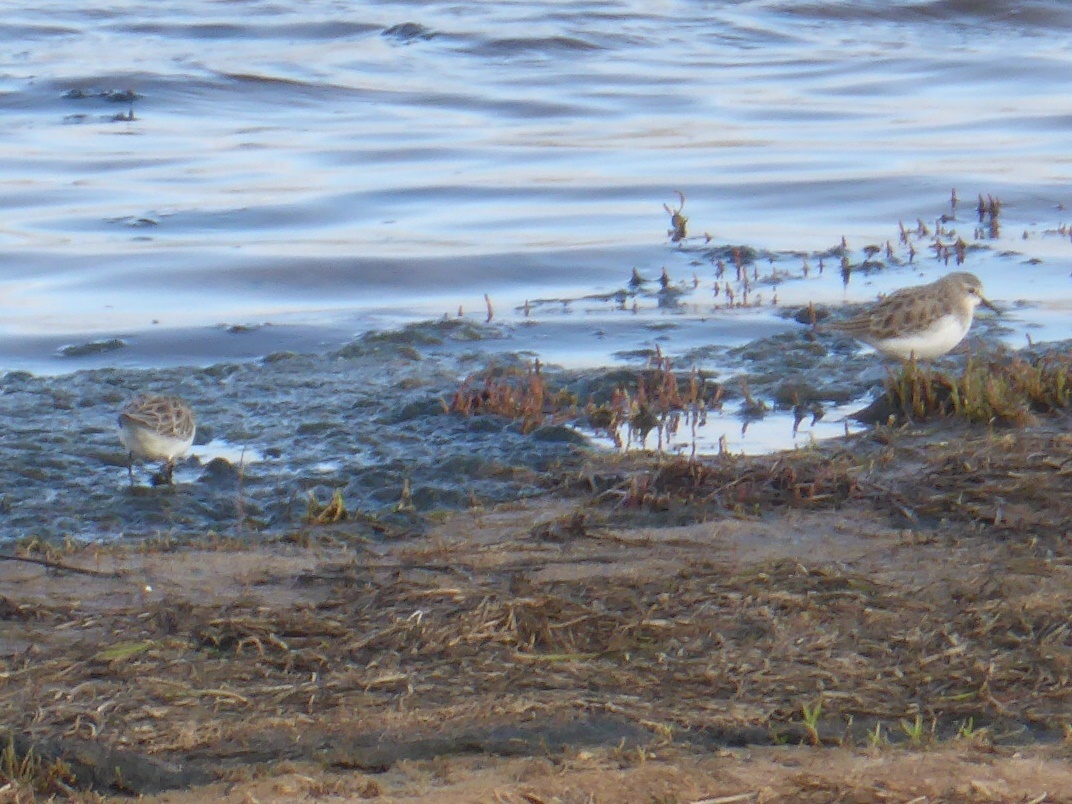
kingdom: Animalia
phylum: Chordata
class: Aves
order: Charadriiformes
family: Scolopacidae
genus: Calidris
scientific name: Calidris minuta
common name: Little stint
